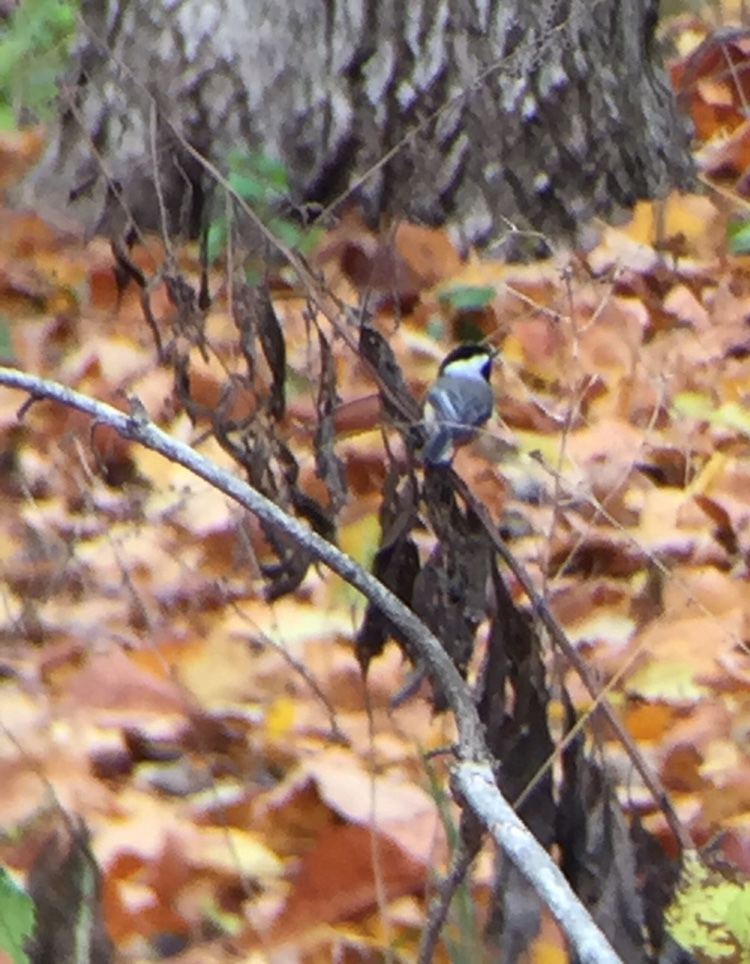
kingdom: Animalia
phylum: Chordata
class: Aves
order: Passeriformes
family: Paridae
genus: Poecile
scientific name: Poecile carolinensis
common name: Carolina chickadee
